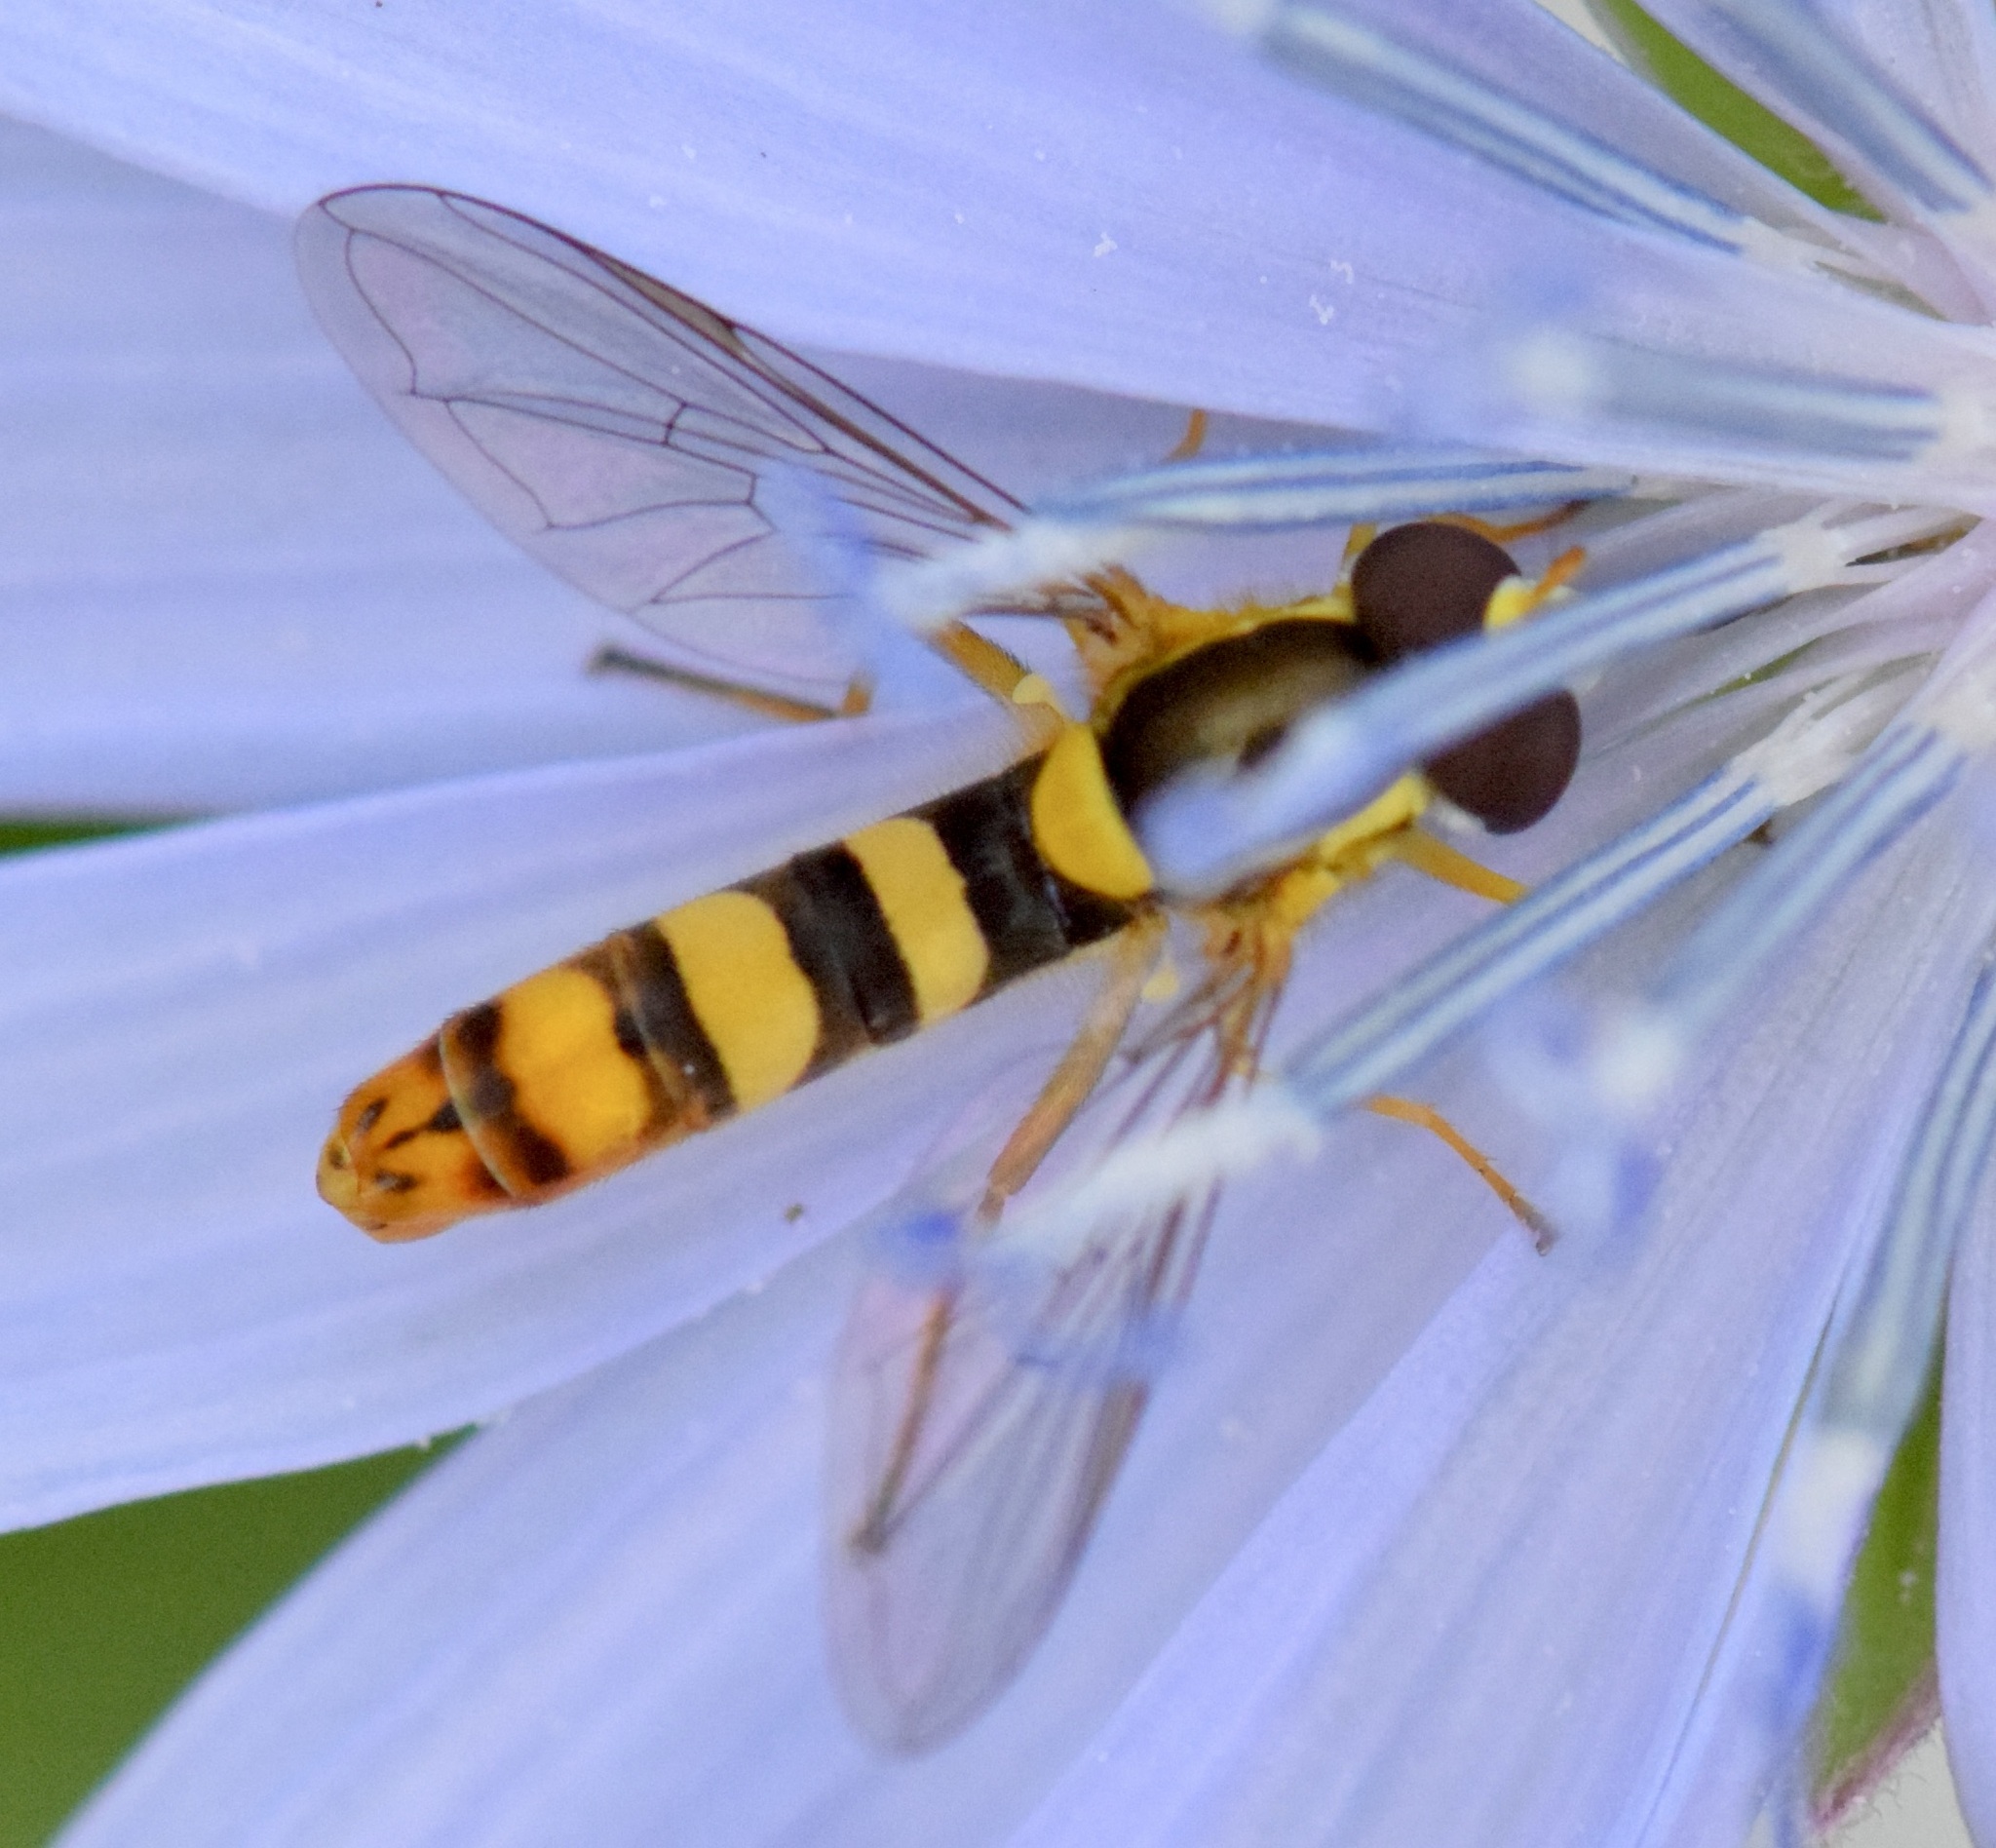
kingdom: Animalia
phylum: Arthropoda
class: Insecta
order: Diptera
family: Syrphidae
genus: Sphaerophoria
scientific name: Sphaerophoria philantha
